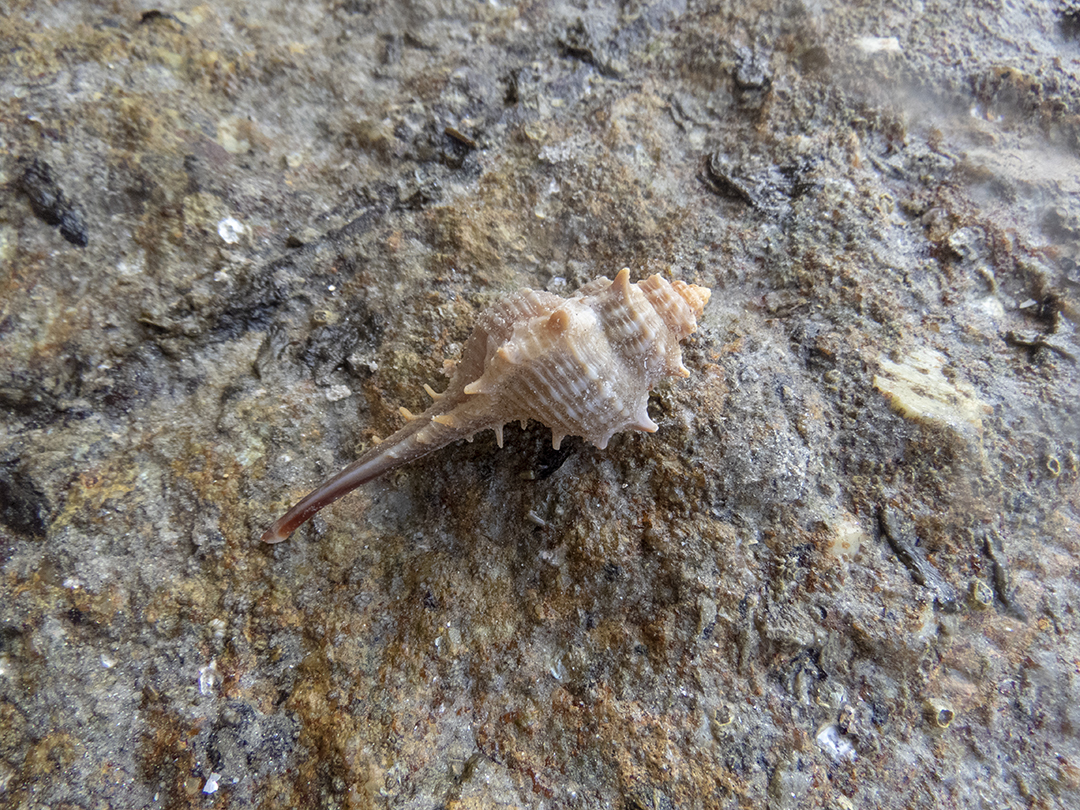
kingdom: Animalia
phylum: Mollusca
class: Gastropoda
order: Neogastropoda
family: Muricidae
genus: Murex
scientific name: Murex trapa
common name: Rare spined murex
